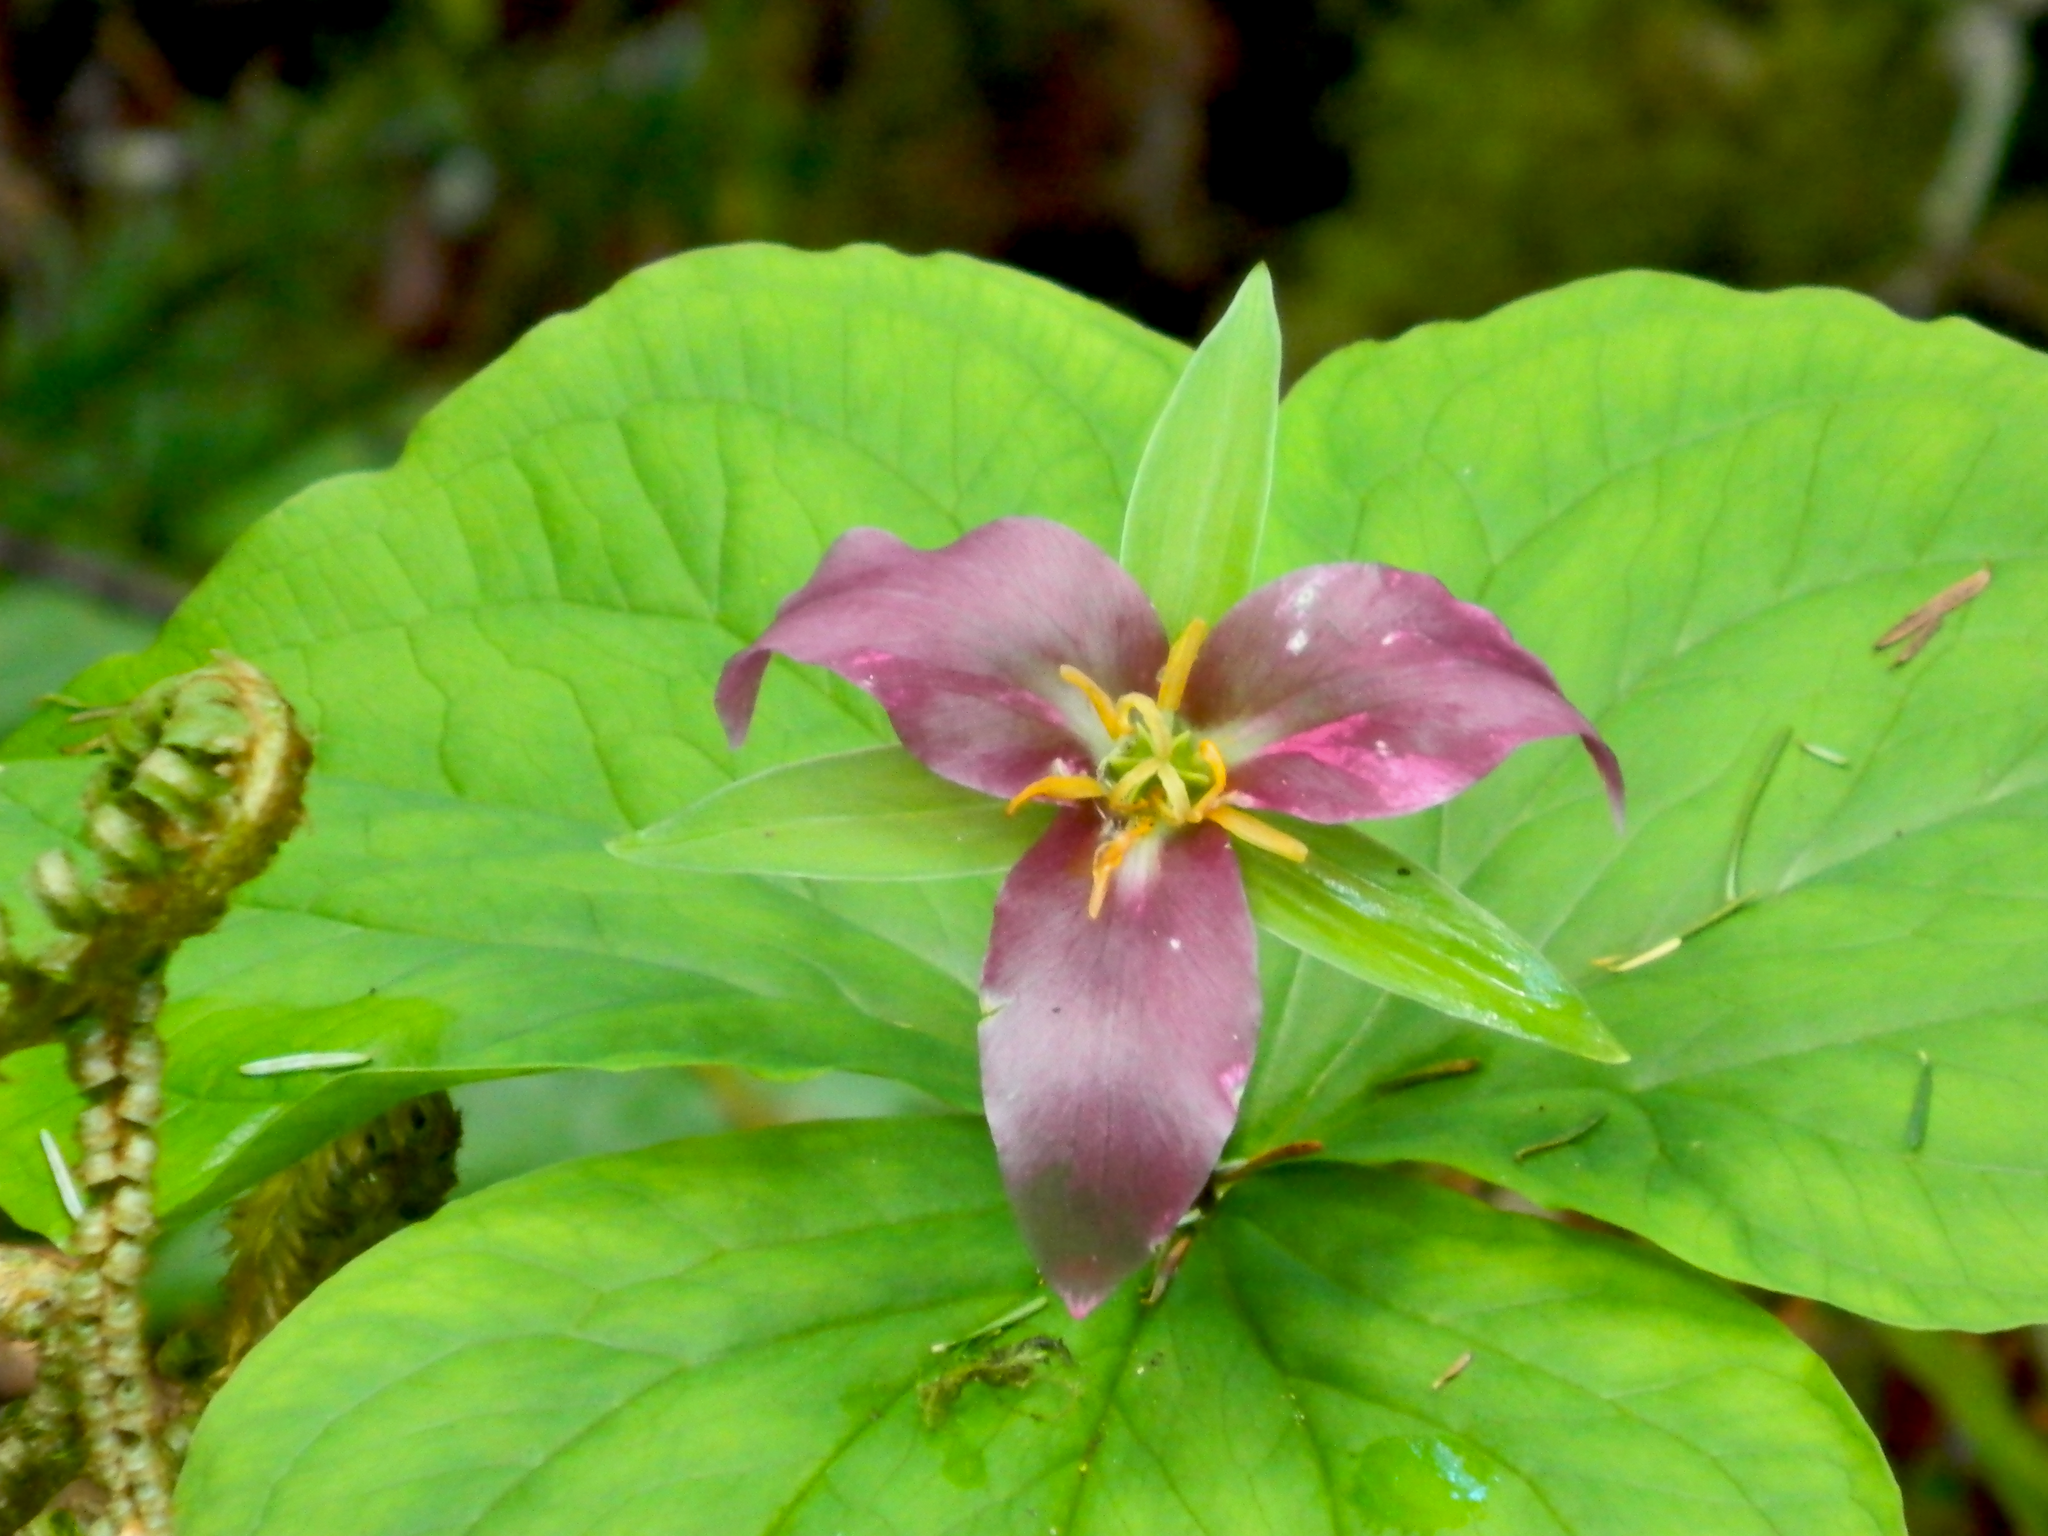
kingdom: Plantae
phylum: Tracheophyta
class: Liliopsida
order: Liliales
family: Melanthiaceae
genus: Trillium
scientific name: Trillium ovatum
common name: Pacific trillium
